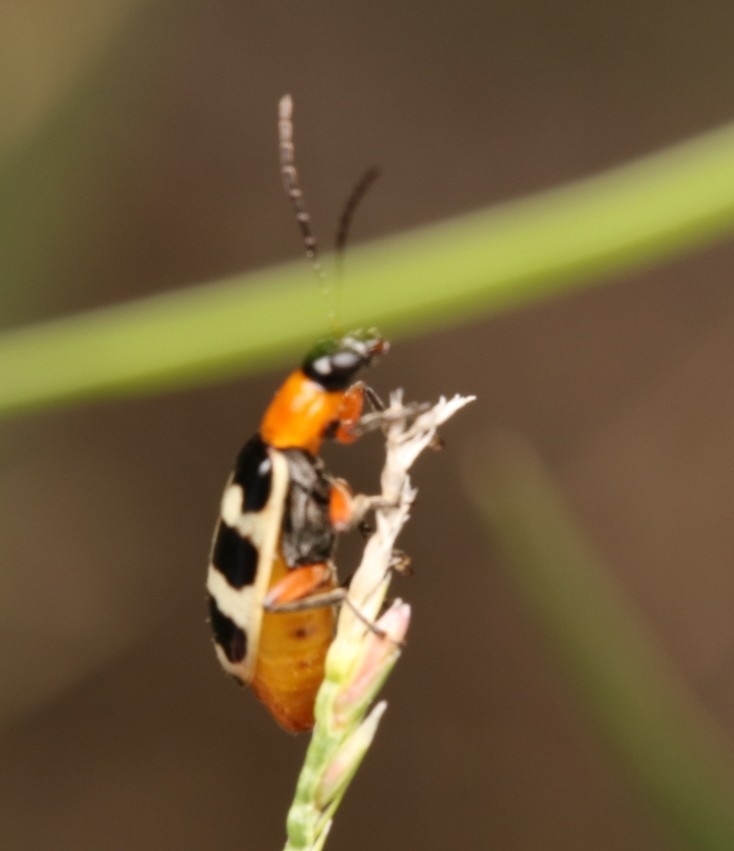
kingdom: Animalia
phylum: Arthropoda
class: Insecta
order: Coleoptera
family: Chrysomelidae
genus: Paranapiacaba
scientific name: Paranapiacaba tricincta
